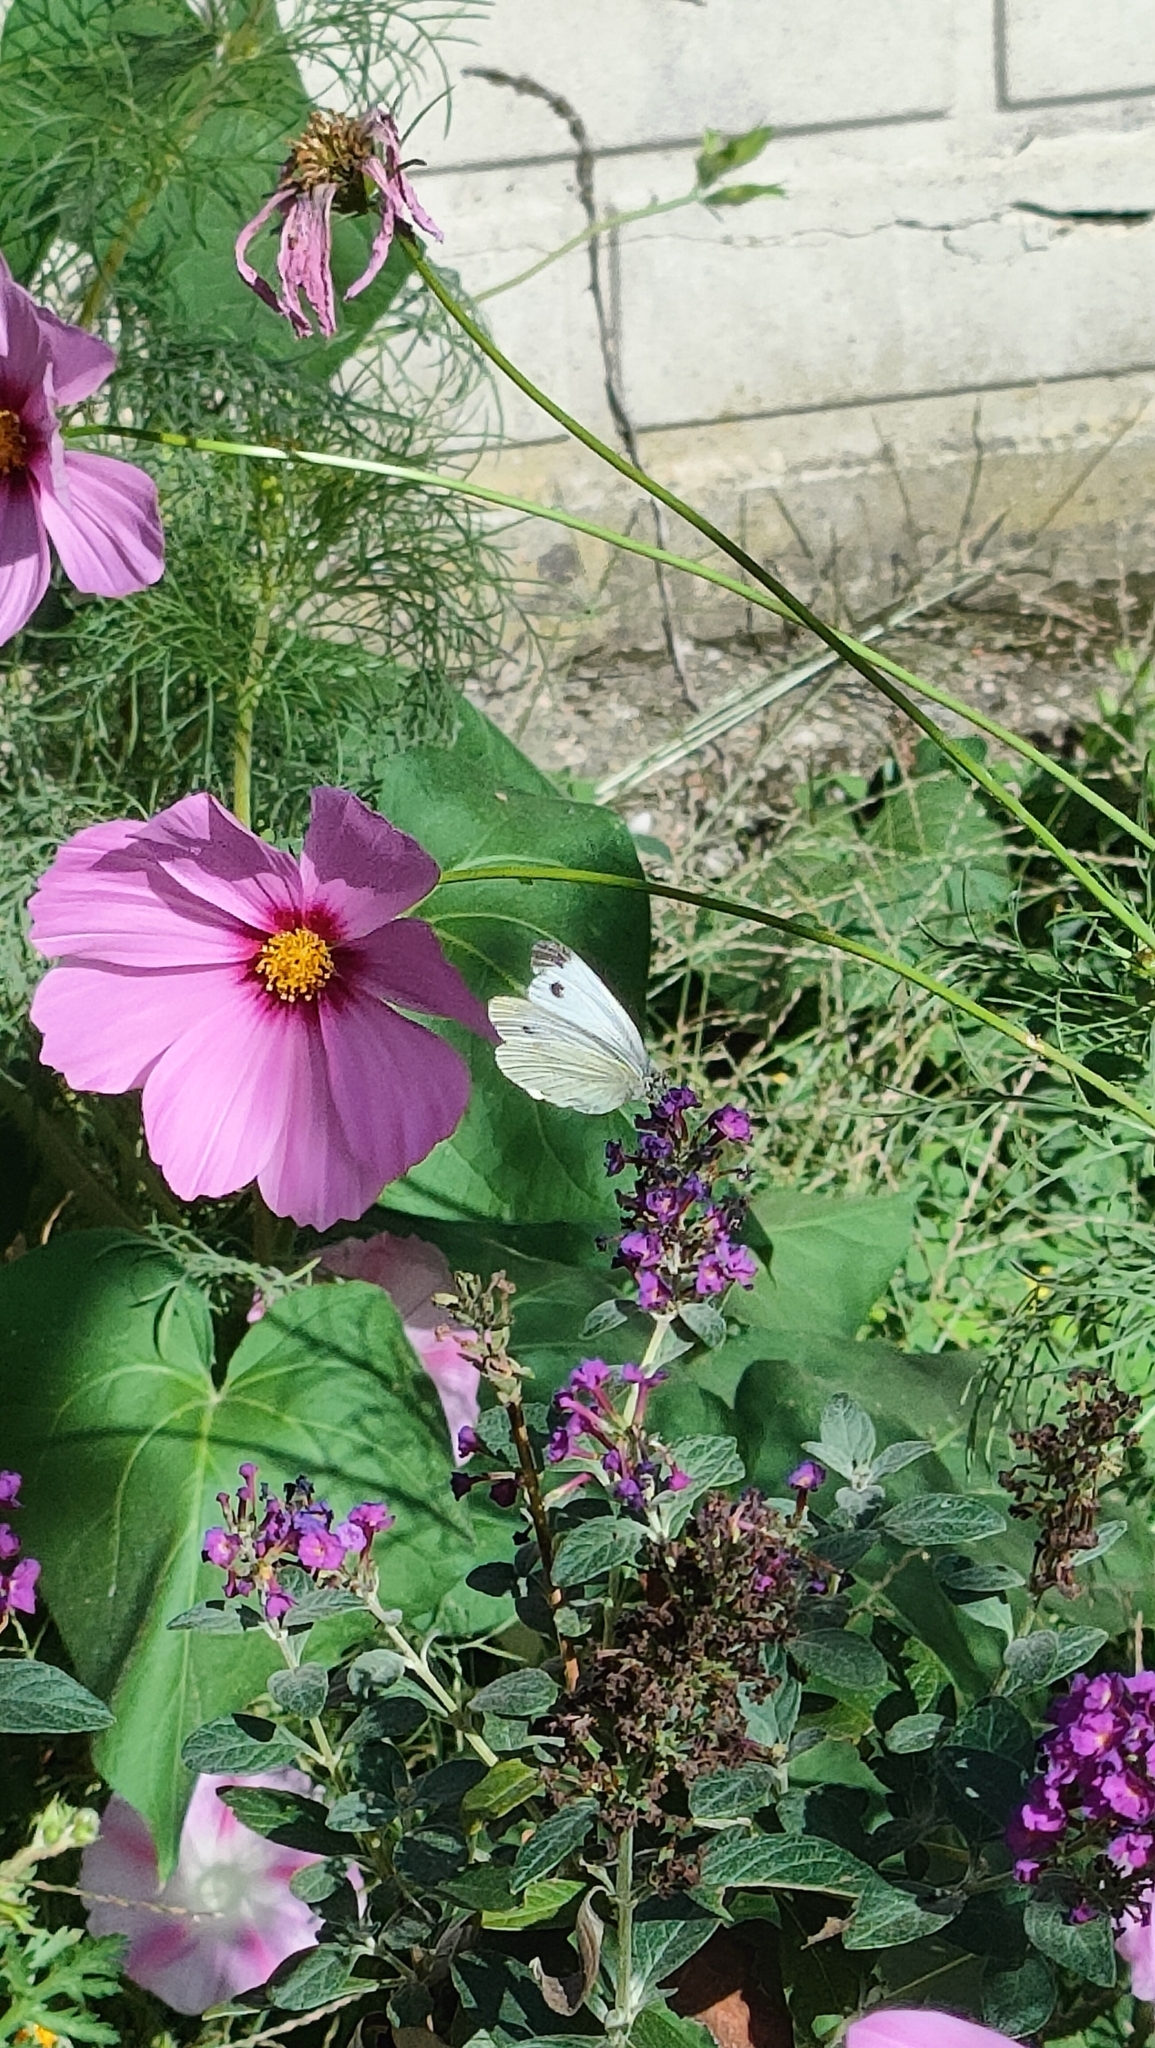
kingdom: Animalia
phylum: Arthropoda
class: Insecta
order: Lepidoptera
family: Pieridae
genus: Pieris
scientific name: Pieris rapae
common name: Small white
